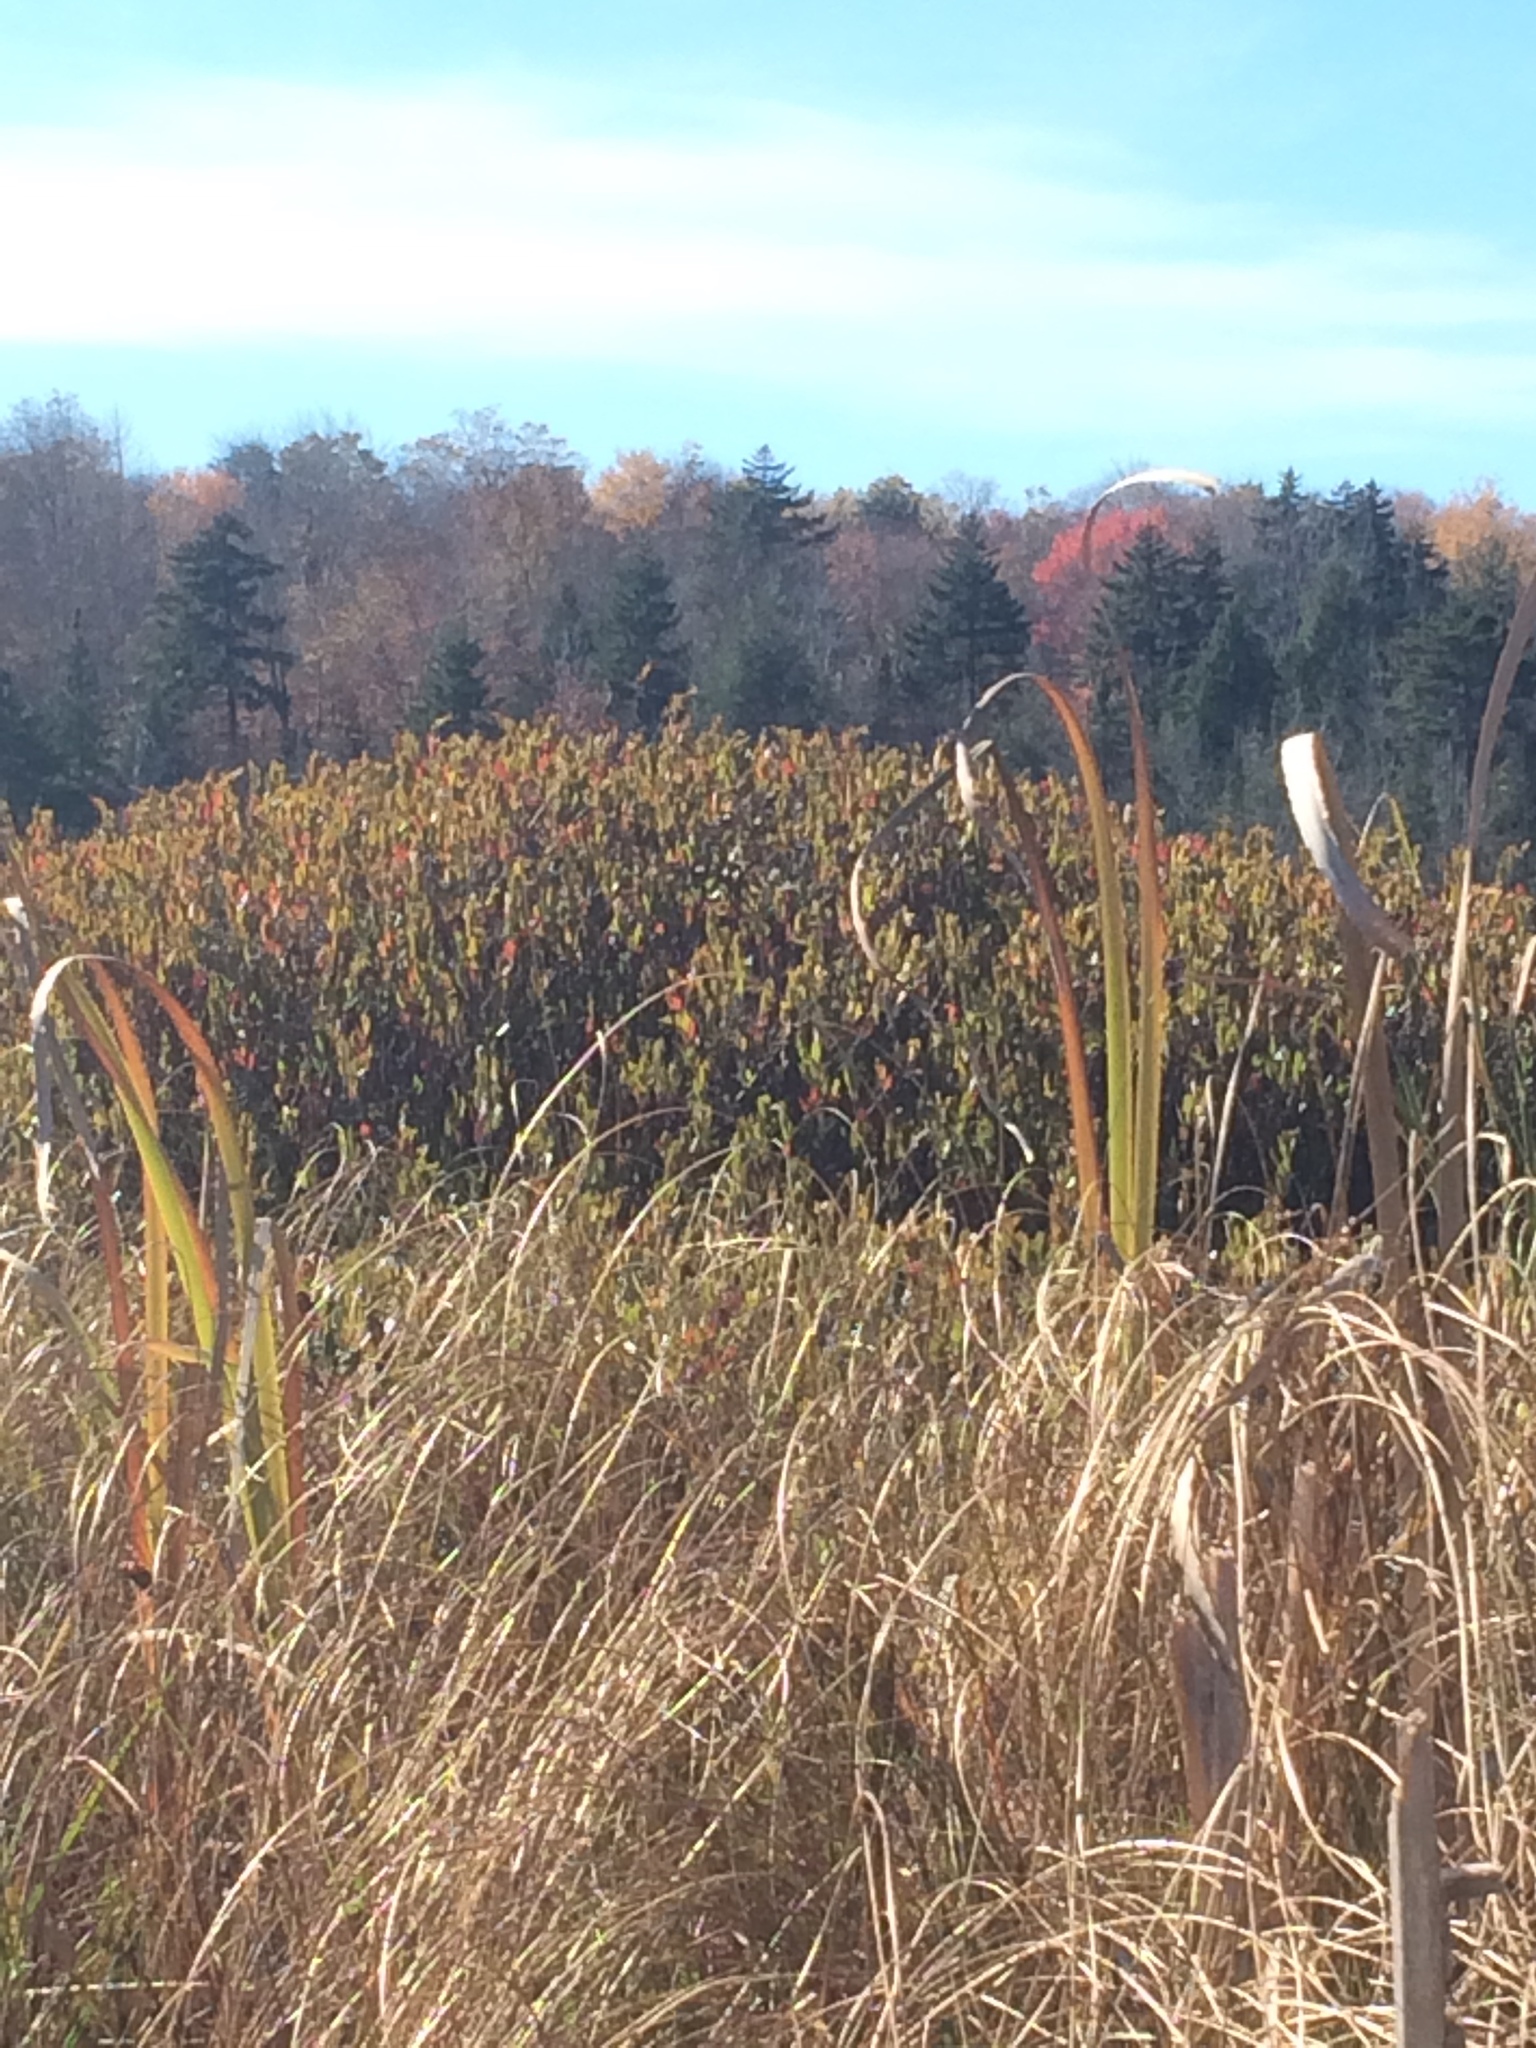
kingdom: Plantae
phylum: Tracheophyta
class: Magnoliopsida
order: Ericales
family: Ericaceae
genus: Chamaedaphne
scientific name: Chamaedaphne calyculata
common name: Leatherleaf
